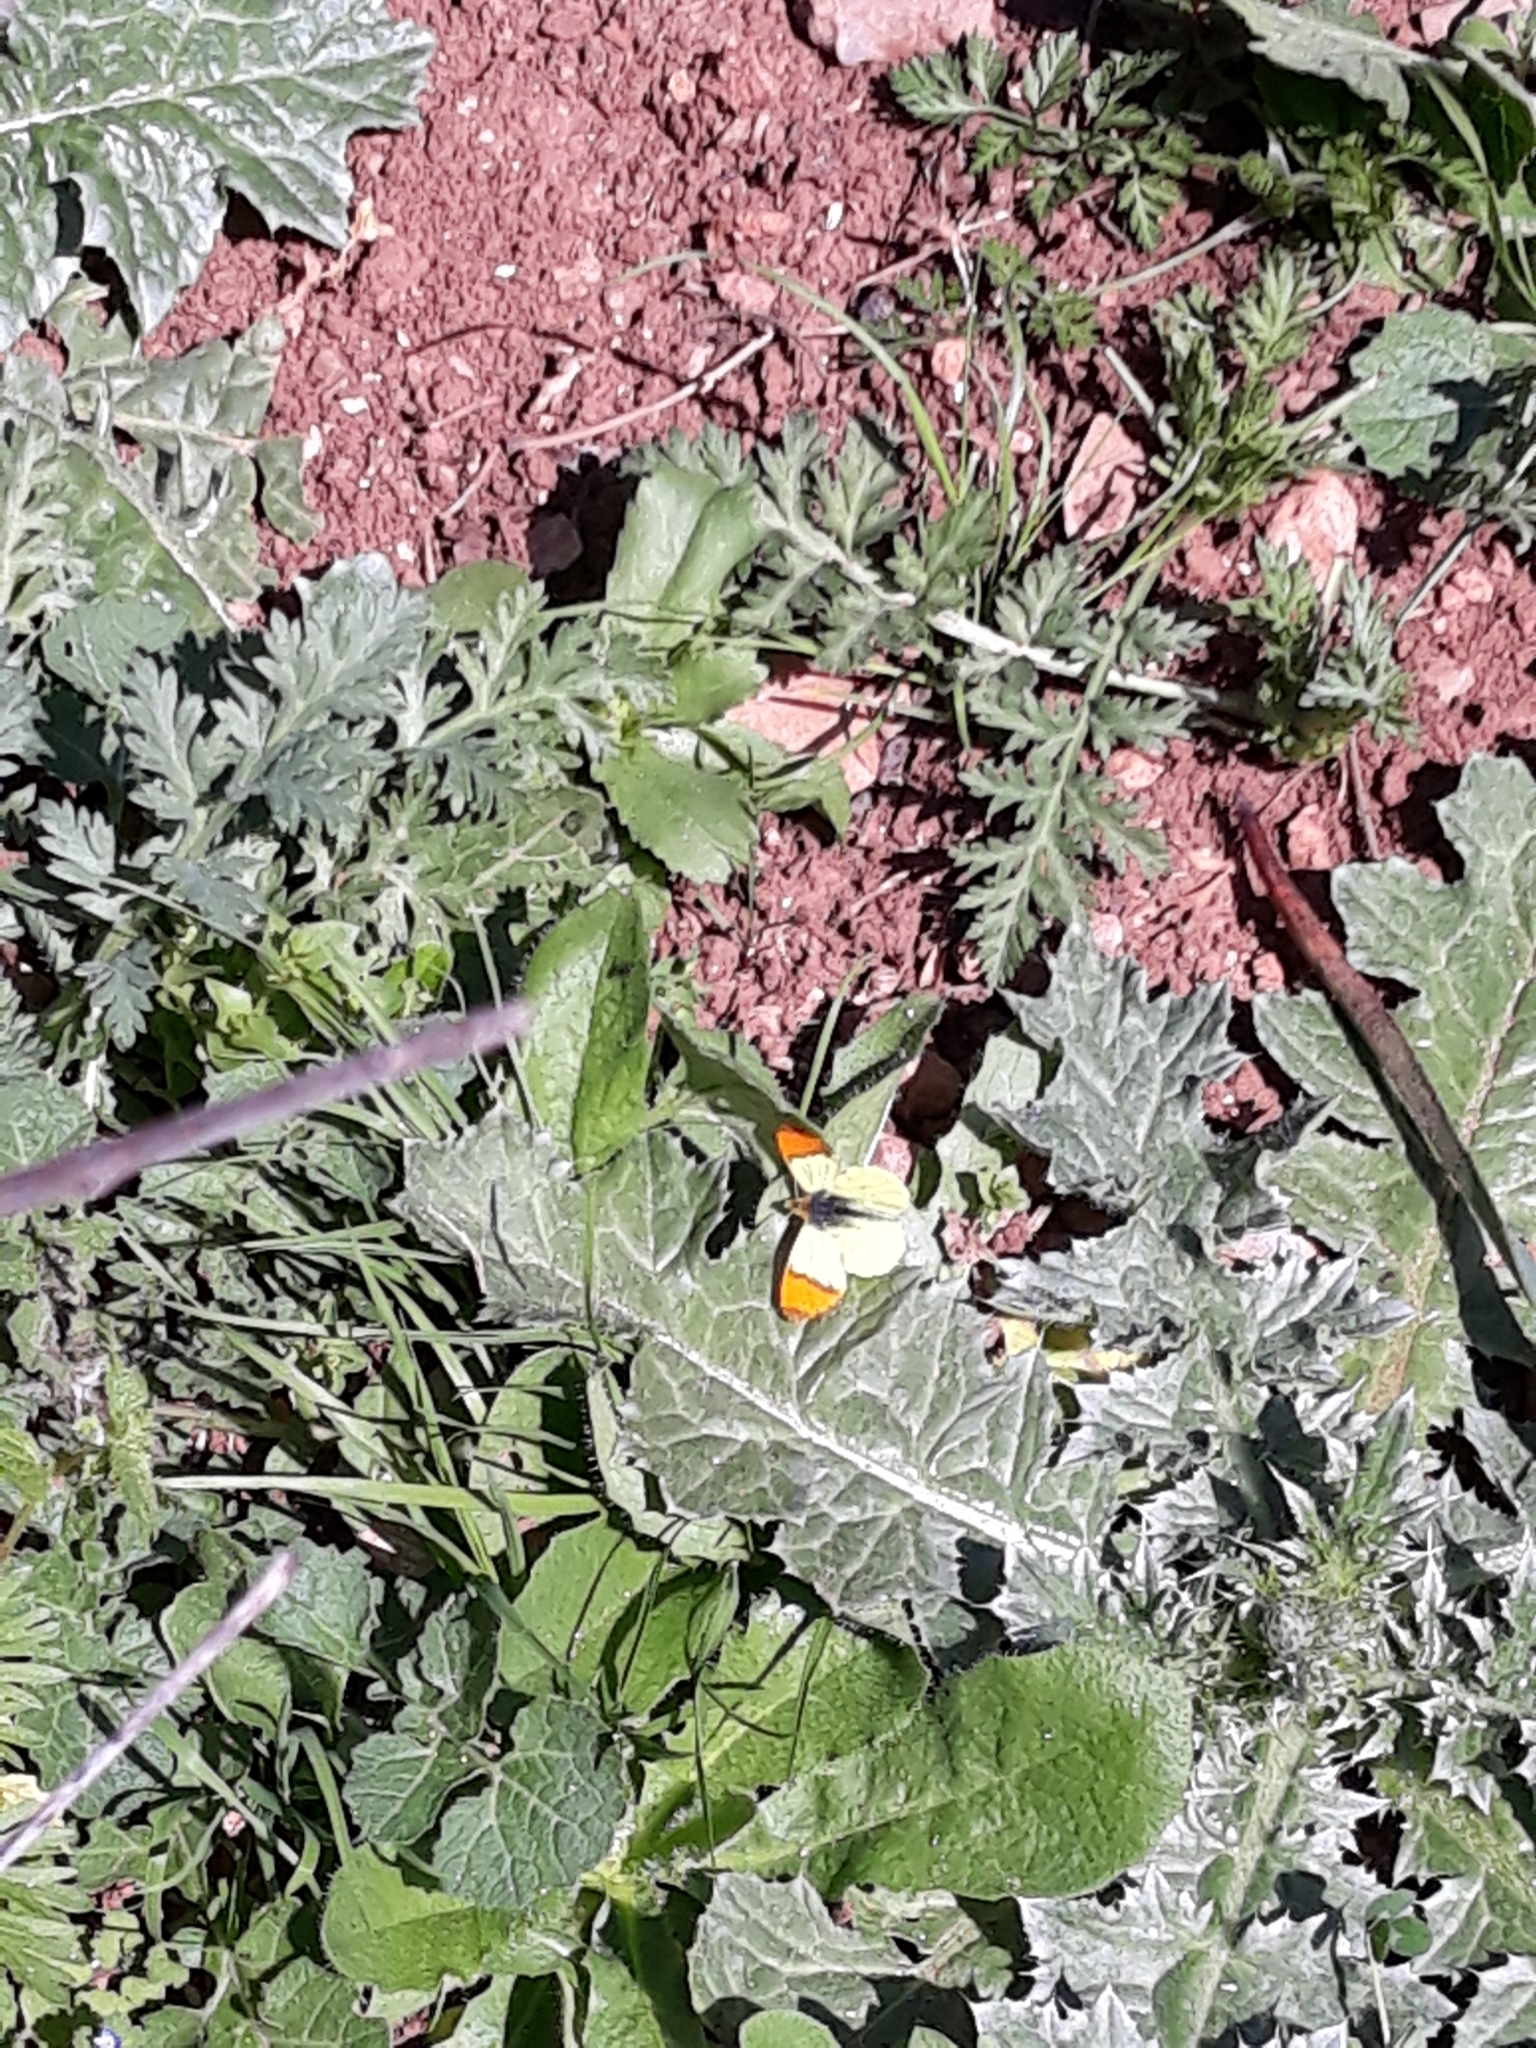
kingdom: Animalia
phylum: Arthropoda
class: Insecta
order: Lepidoptera
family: Pieridae
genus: Anthocharis
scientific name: Anthocharis belia
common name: Moroccan orange tip
